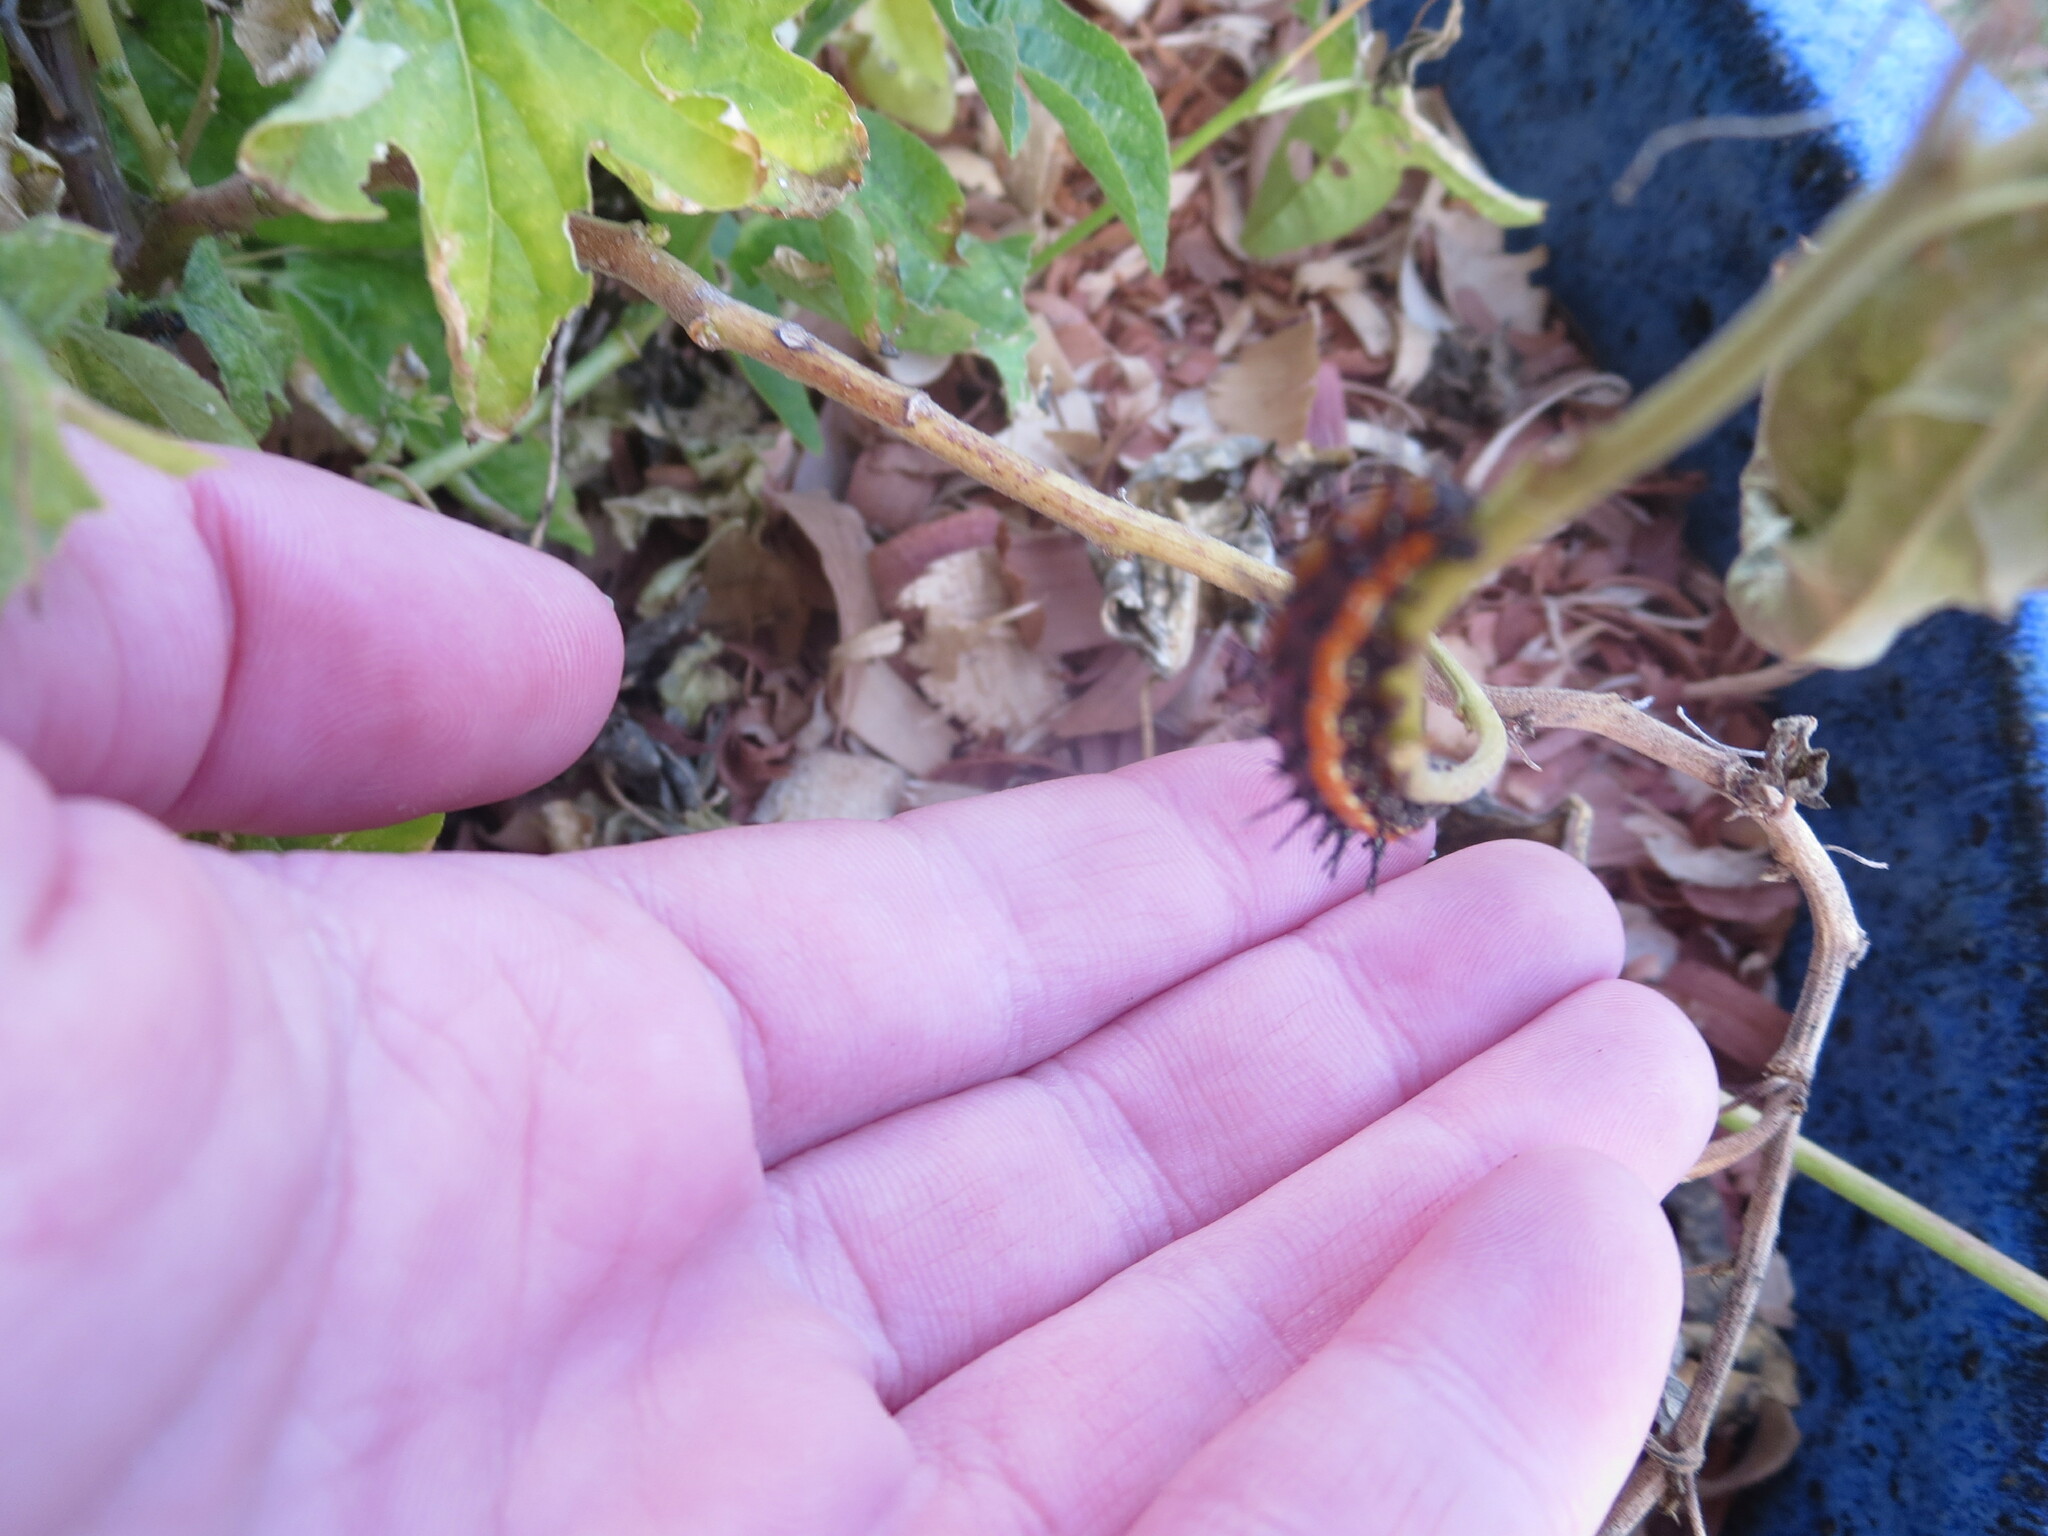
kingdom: Animalia
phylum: Arthropoda
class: Insecta
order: Lepidoptera
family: Nymphalidae
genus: Dione
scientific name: Dione vanillae
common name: Gulf fritillary
